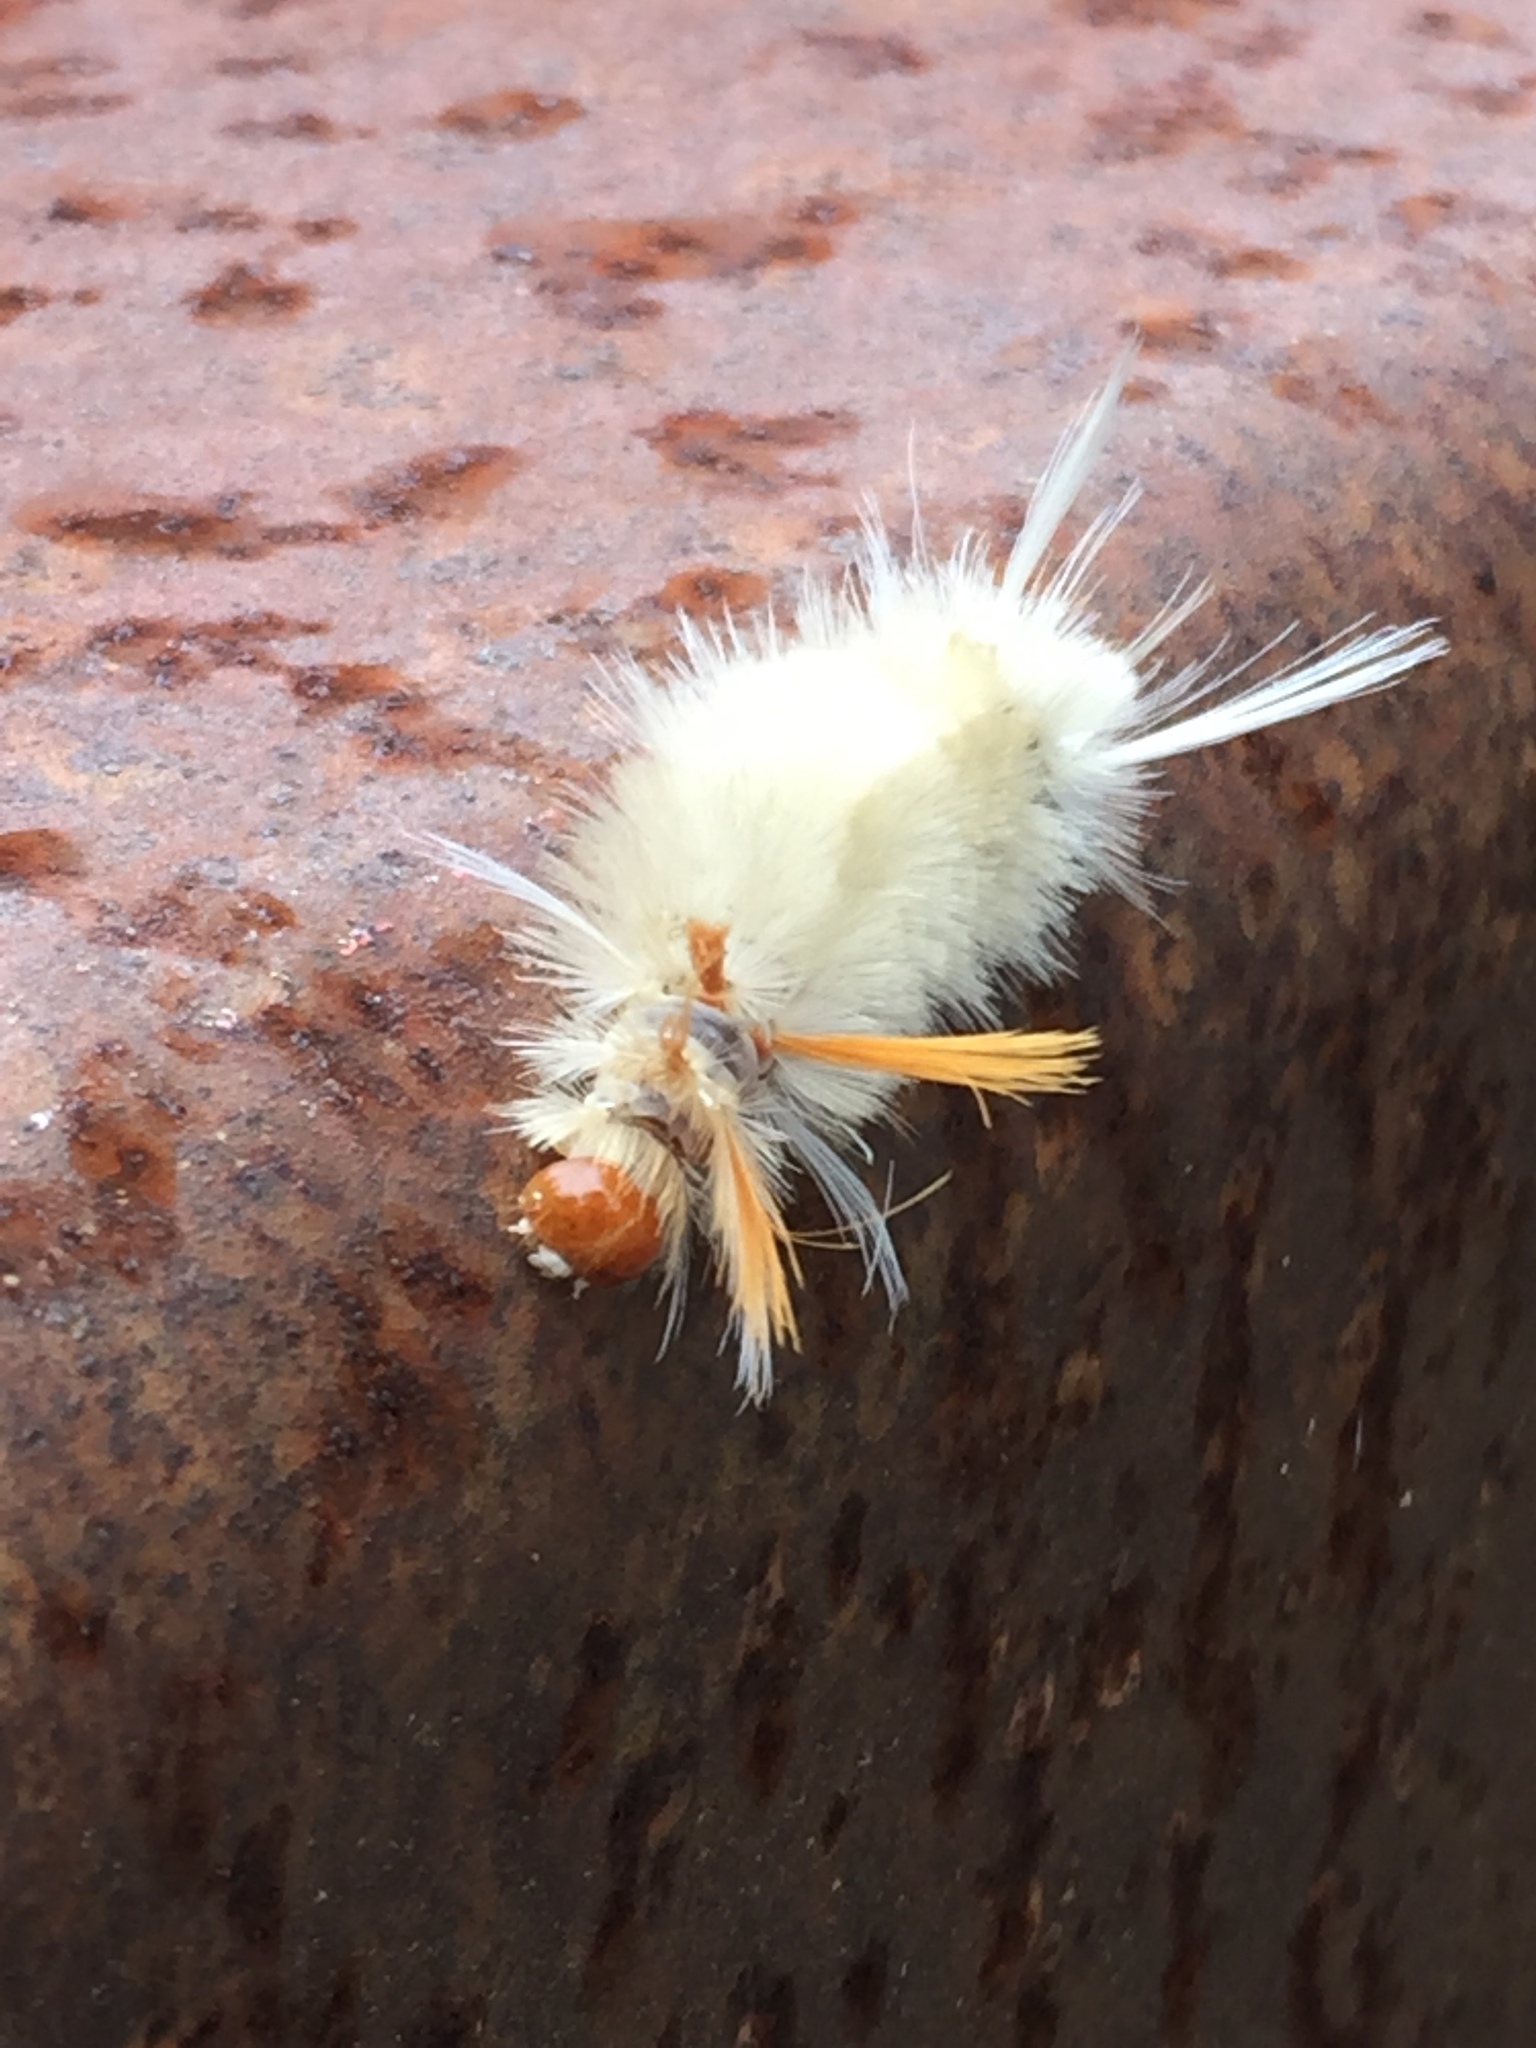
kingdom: Animalia
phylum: Arthropoda
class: Insecta
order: Lepidoptera
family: Erebidae
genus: Halysidota
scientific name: Halysidota harrisii
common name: Sycamore tussock moth
